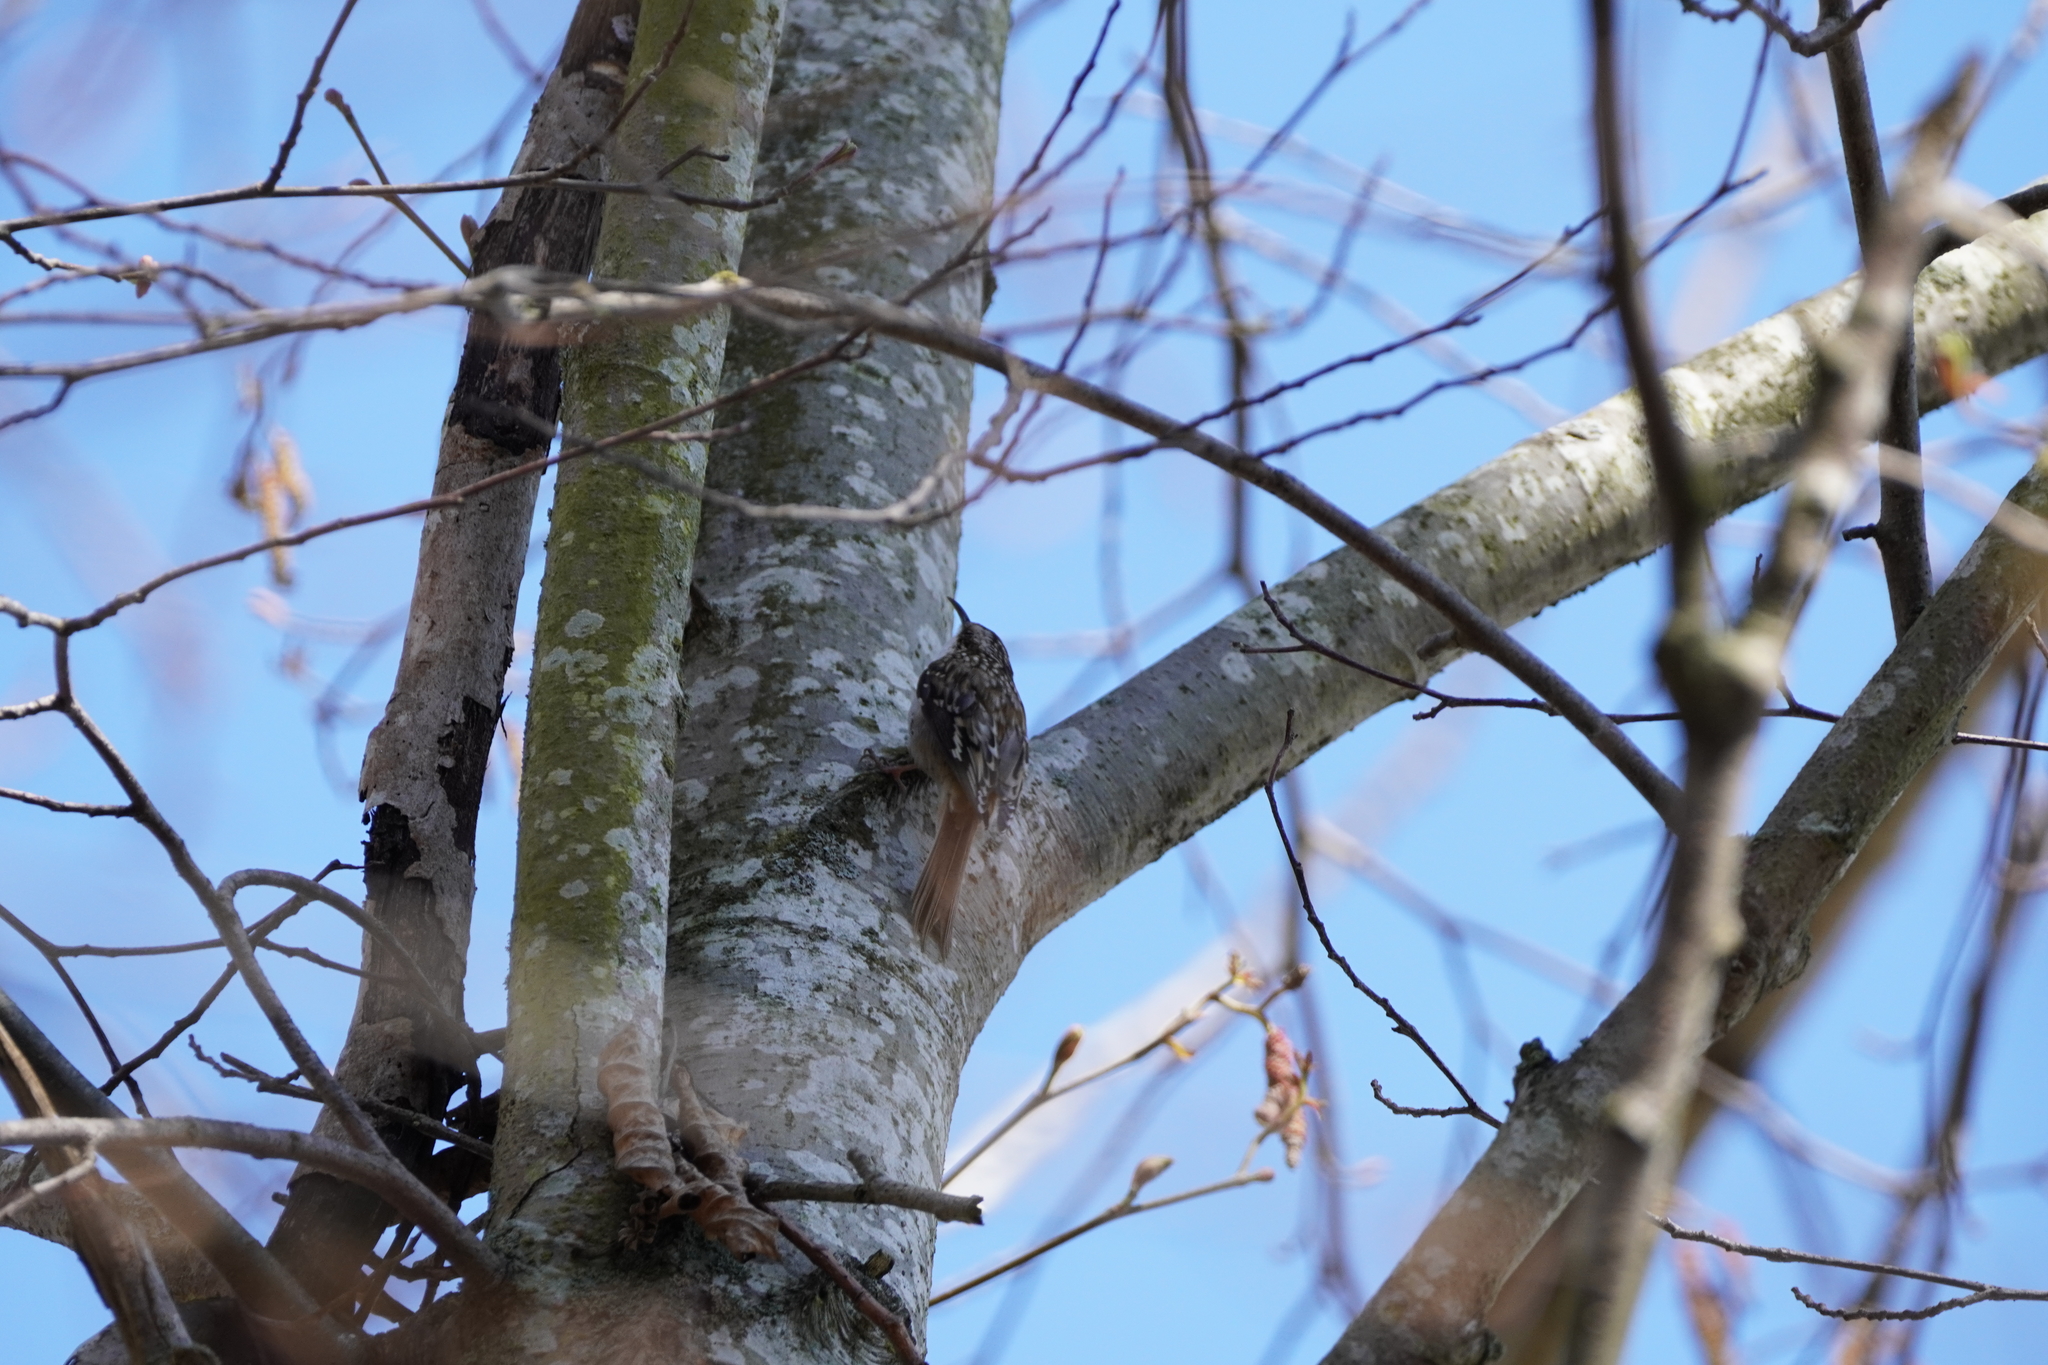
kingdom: Animalia
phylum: Chordata
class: Aves
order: Passeriformes
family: Certhiidae
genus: Certhia
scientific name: Certhia americana
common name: Brown creeper
